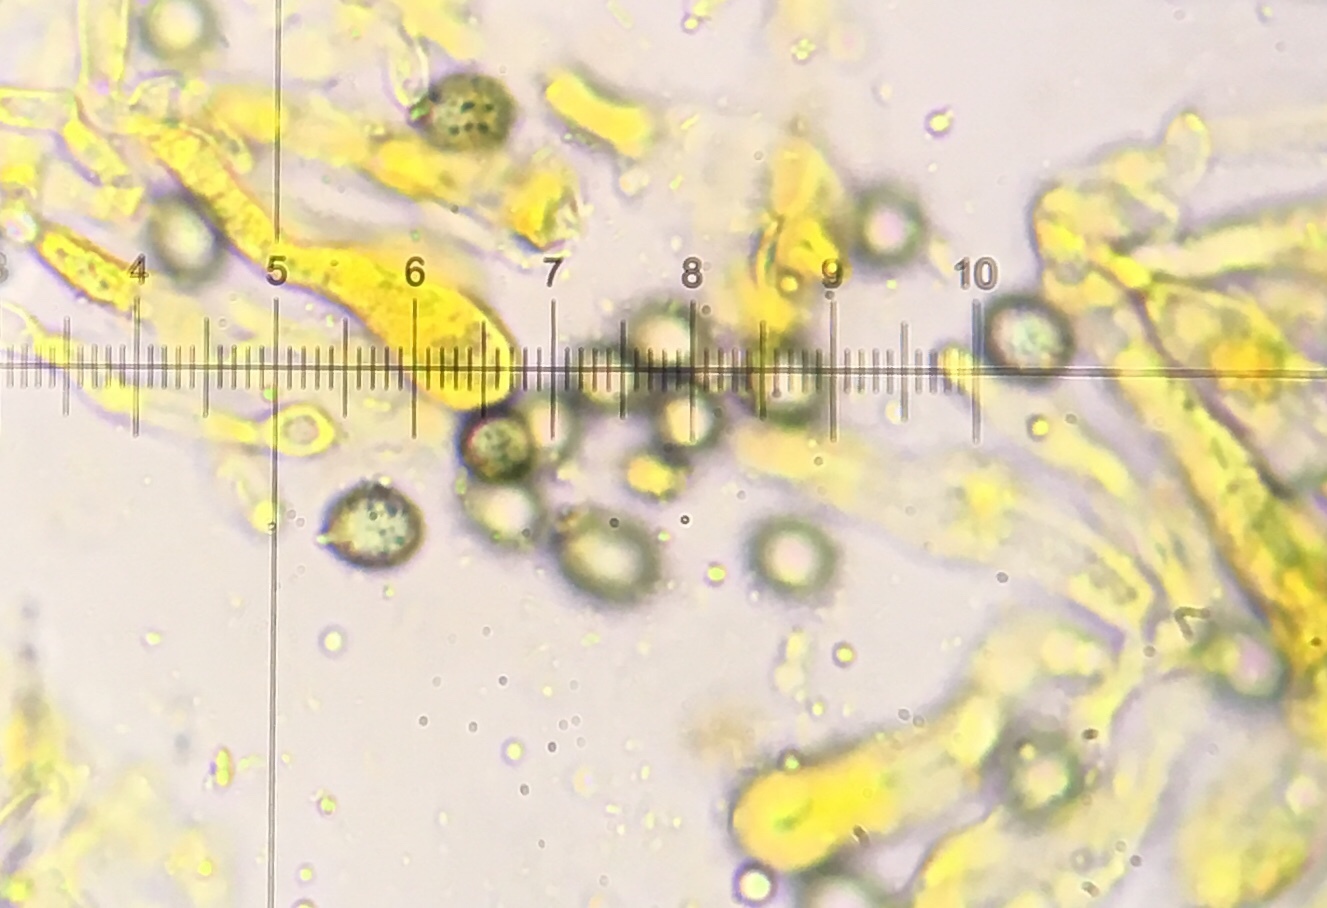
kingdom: Fungi
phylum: Basidiomycota
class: Agaricomycetes
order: Russulales
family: Russulaceae
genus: Russula
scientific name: Russula brunneola
